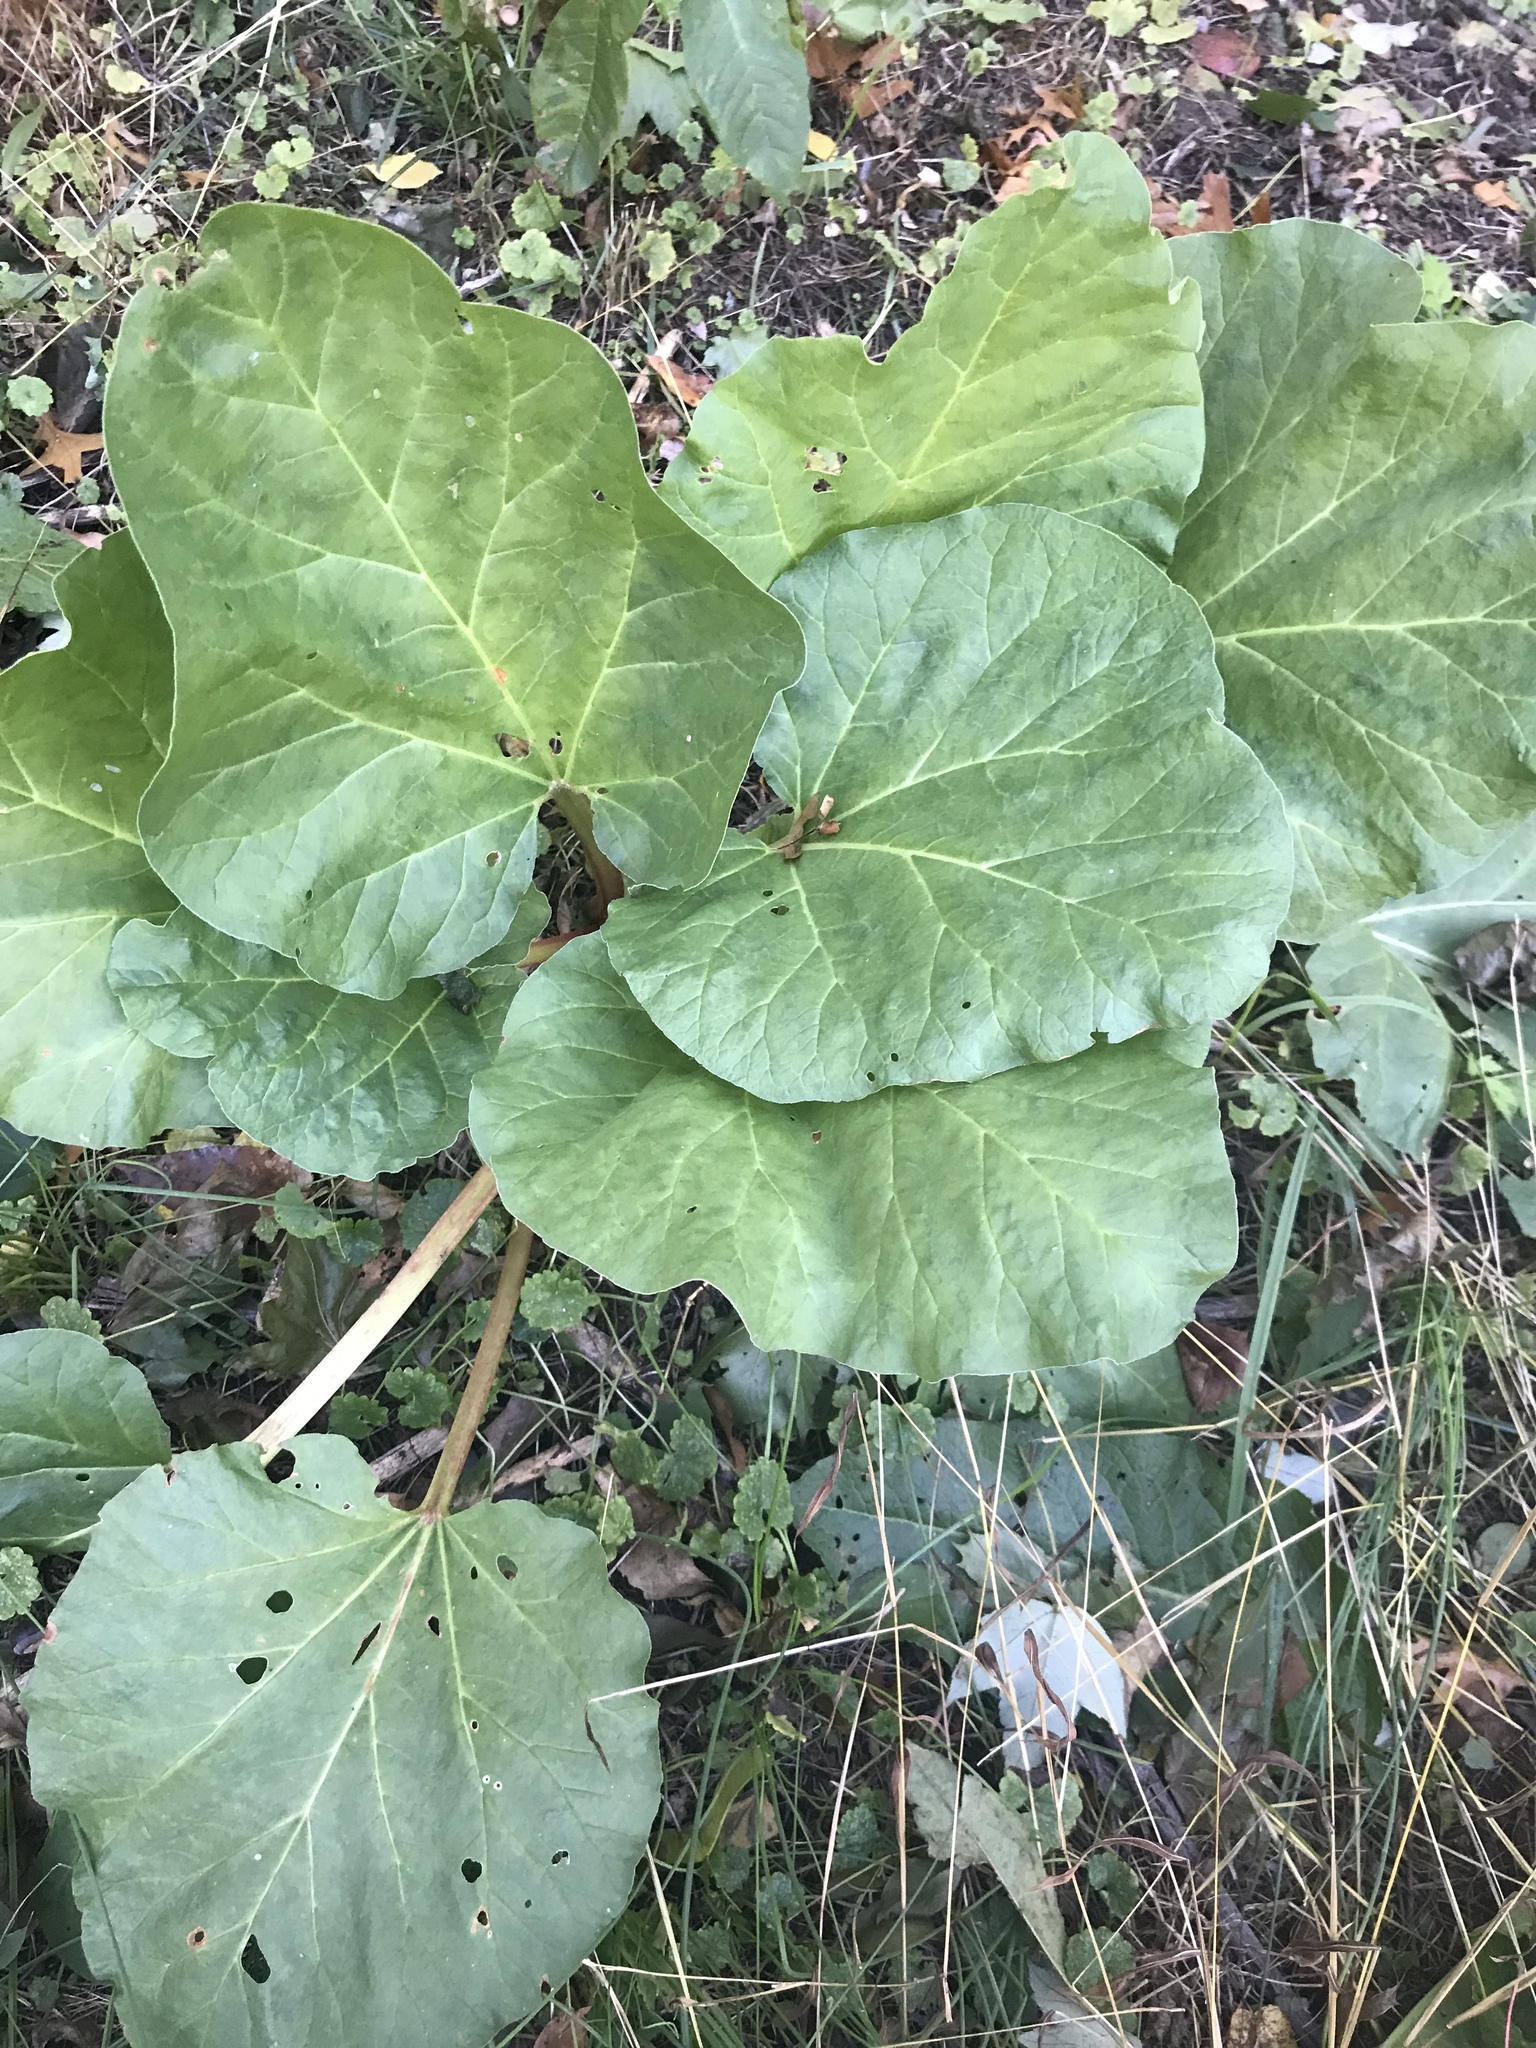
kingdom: Plantae
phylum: Tracheophyta
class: Magnoliopsida
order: Caryophyllales
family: Polygonaceae
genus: Rheum
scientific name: Rheum rhabarbarum
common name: Garden rhubarb
